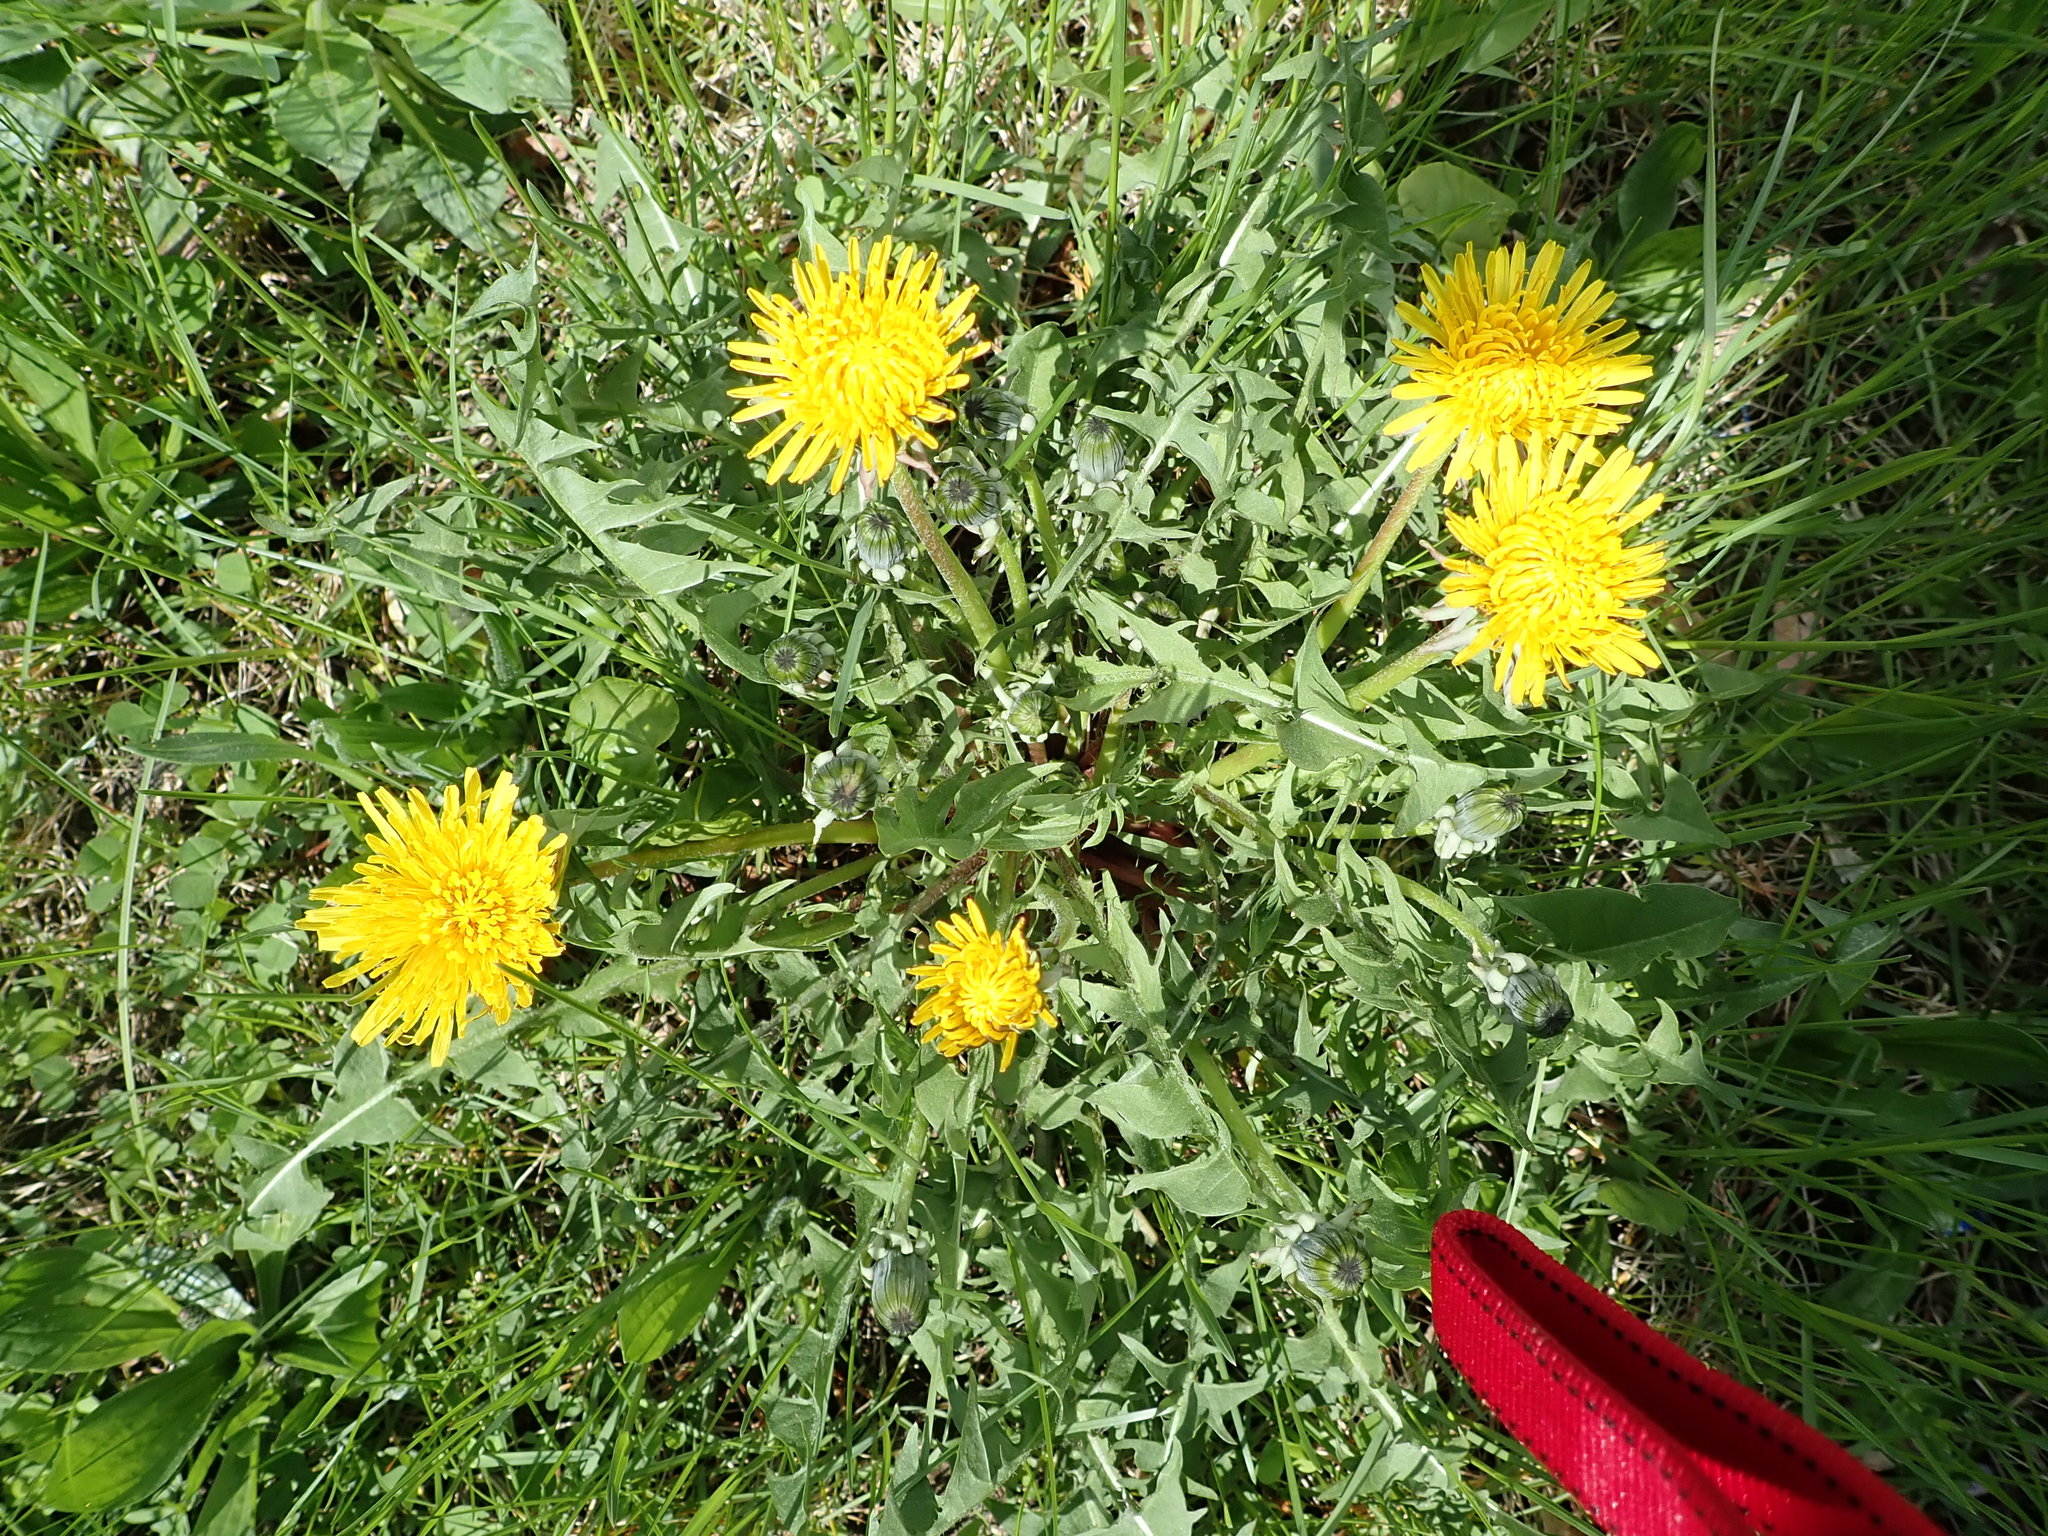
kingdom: Plantae
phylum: Tracheophyta
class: Magnoliopsida
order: Asterales
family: Asteraceae
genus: Taraxacum
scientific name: Taraxacum
